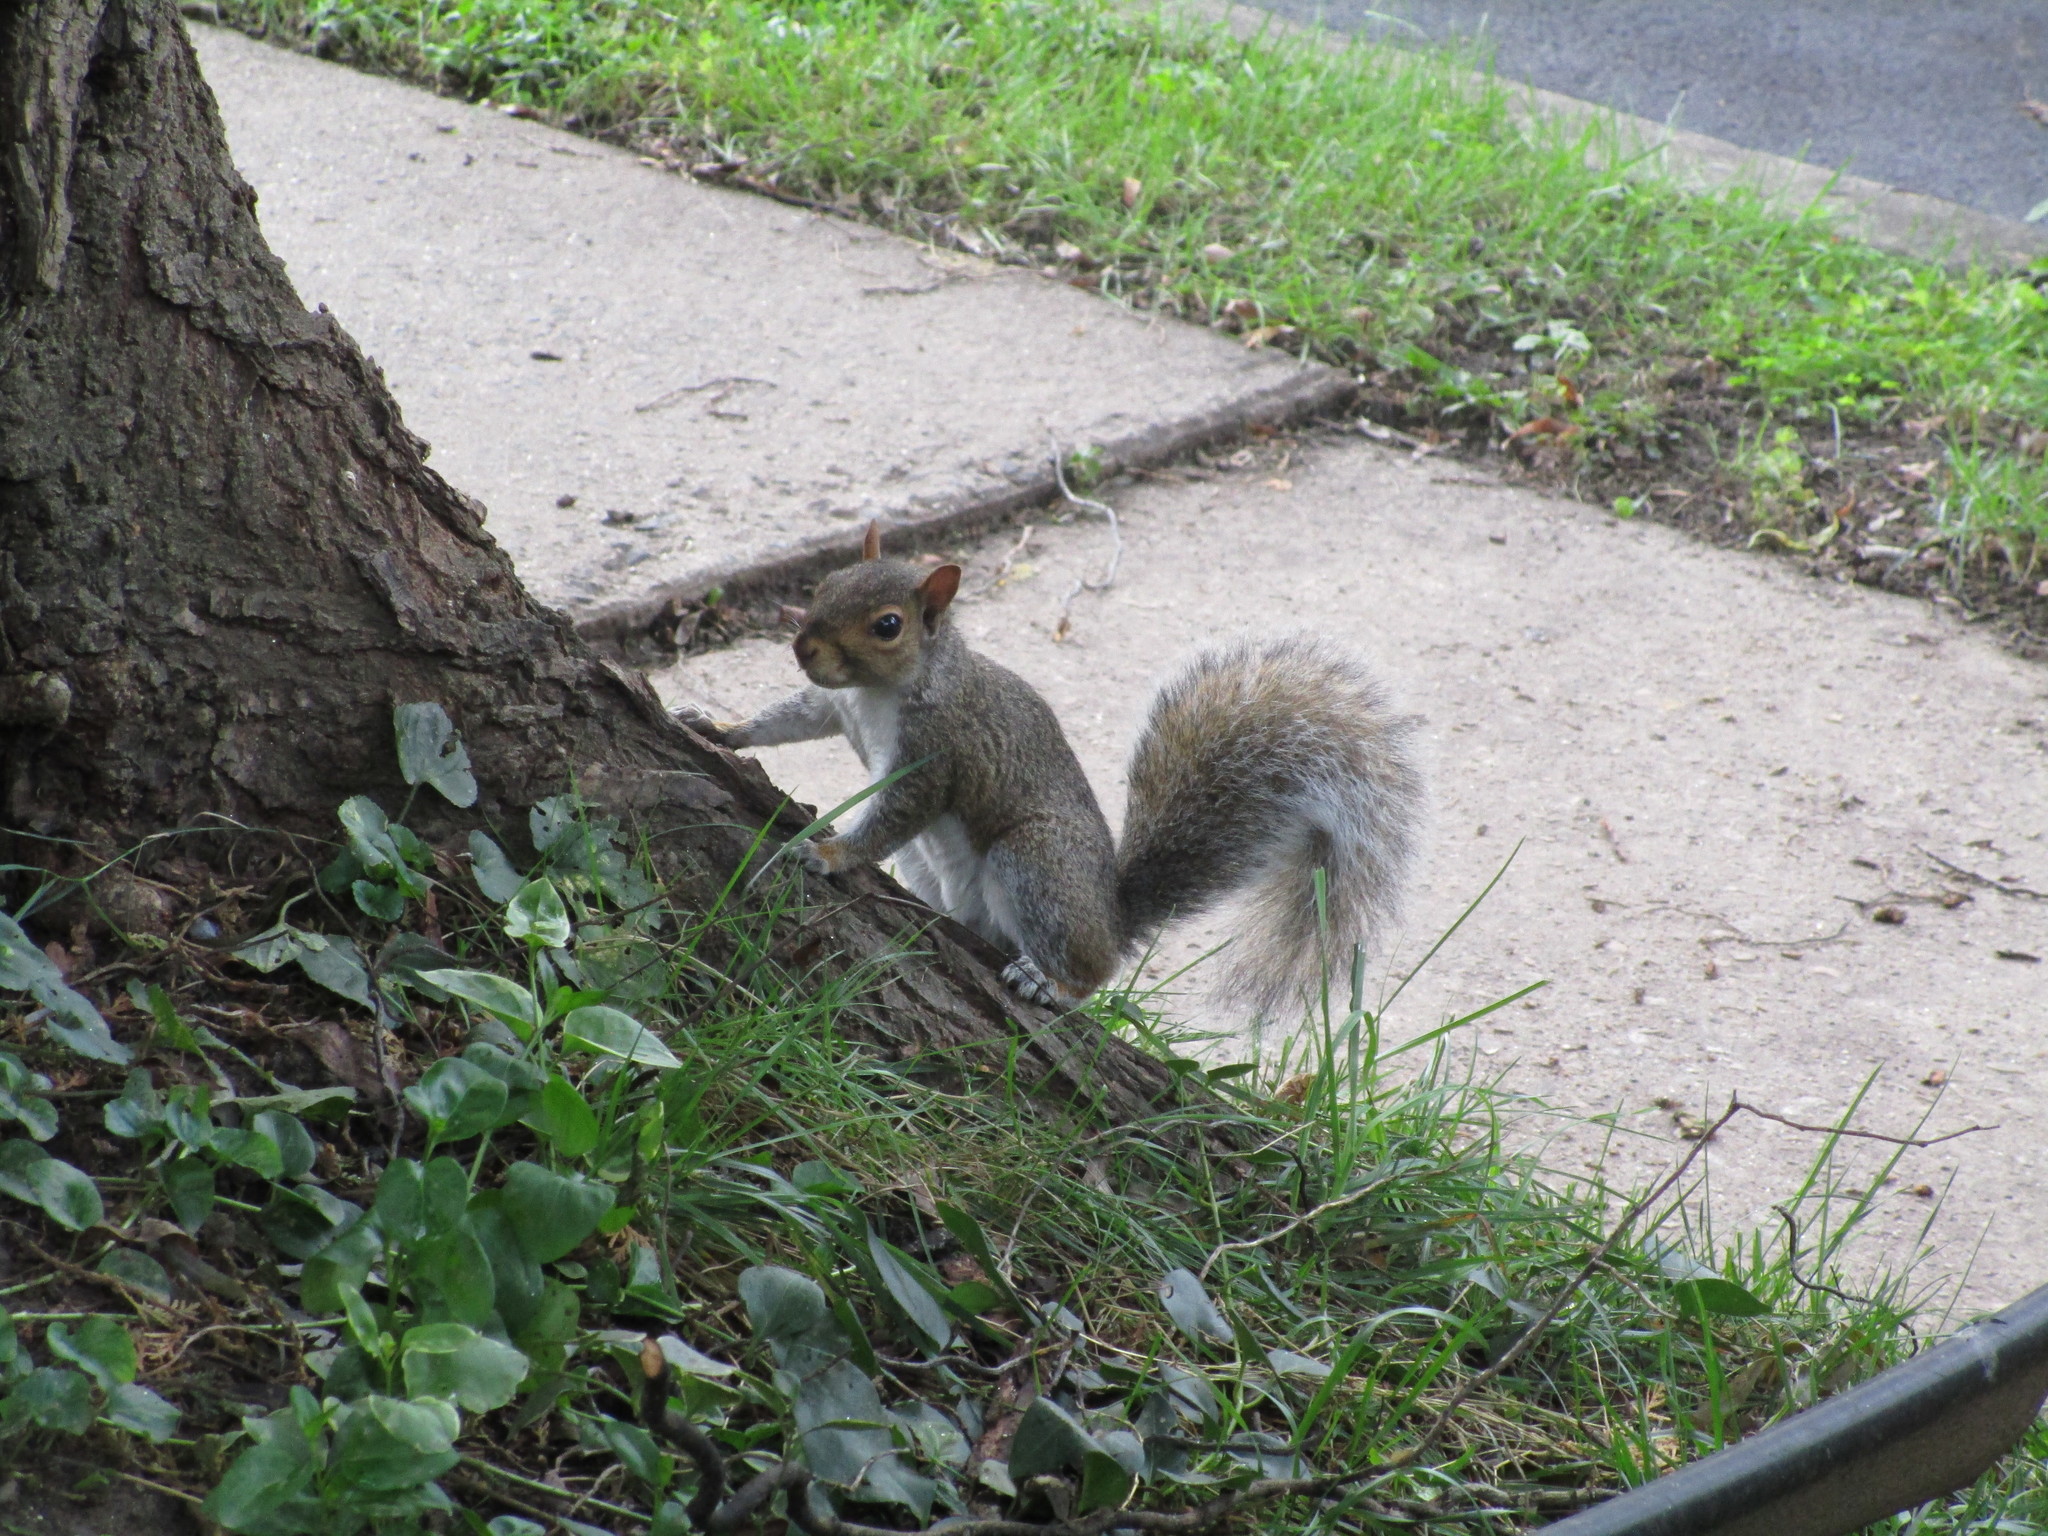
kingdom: Animalia
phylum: Chordata
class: Mammalia
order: Rodentia
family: Sciuridae
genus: Sciurus
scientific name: Sciurus carolinensis
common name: Eastern gray squirrel
